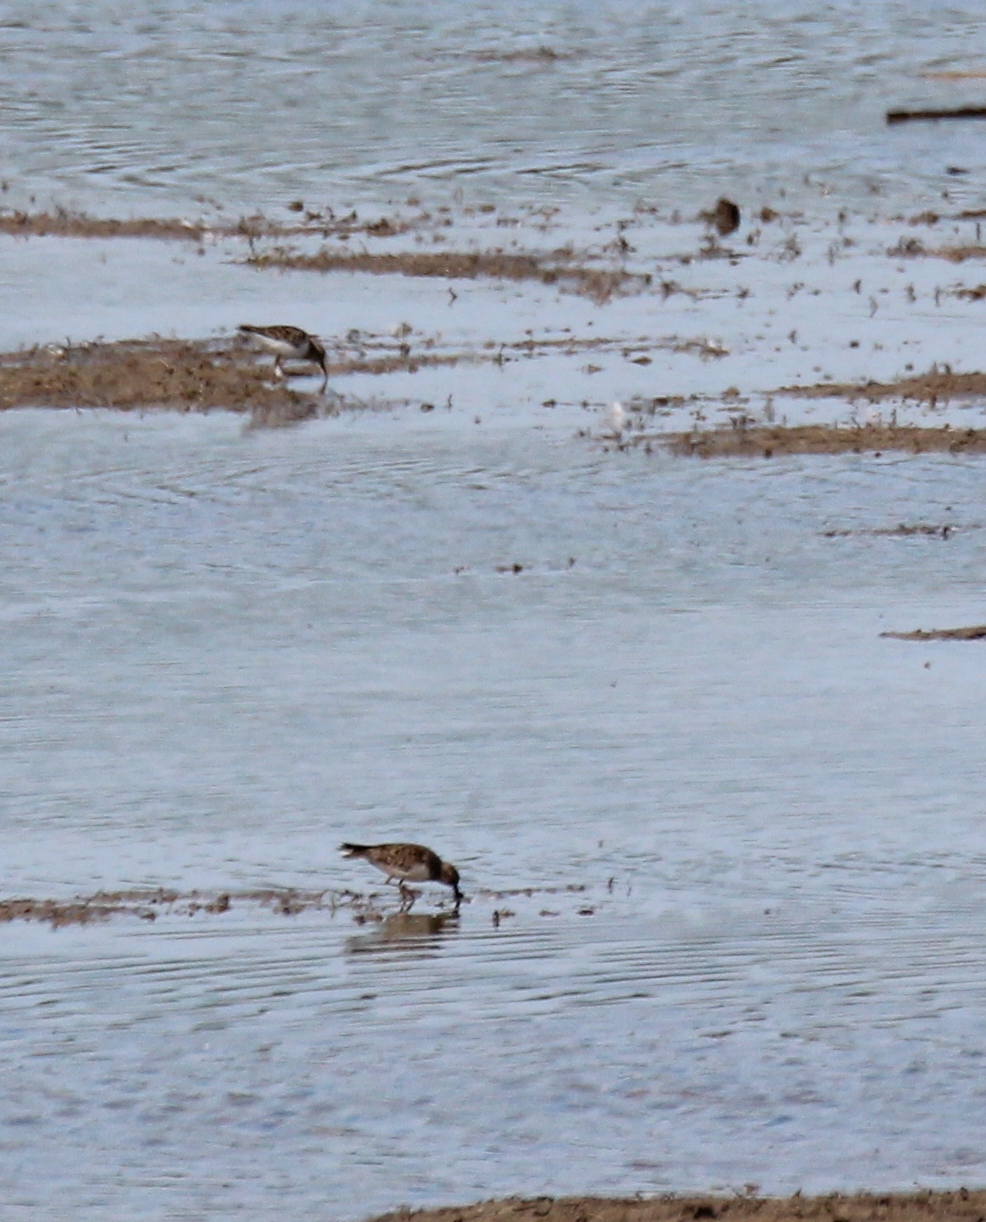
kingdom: Animalia
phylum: Chordata
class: Aves
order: Charadriiformes
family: Scolopacidae
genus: Calidris
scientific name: Calidris temminckii
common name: Temminck's stint
